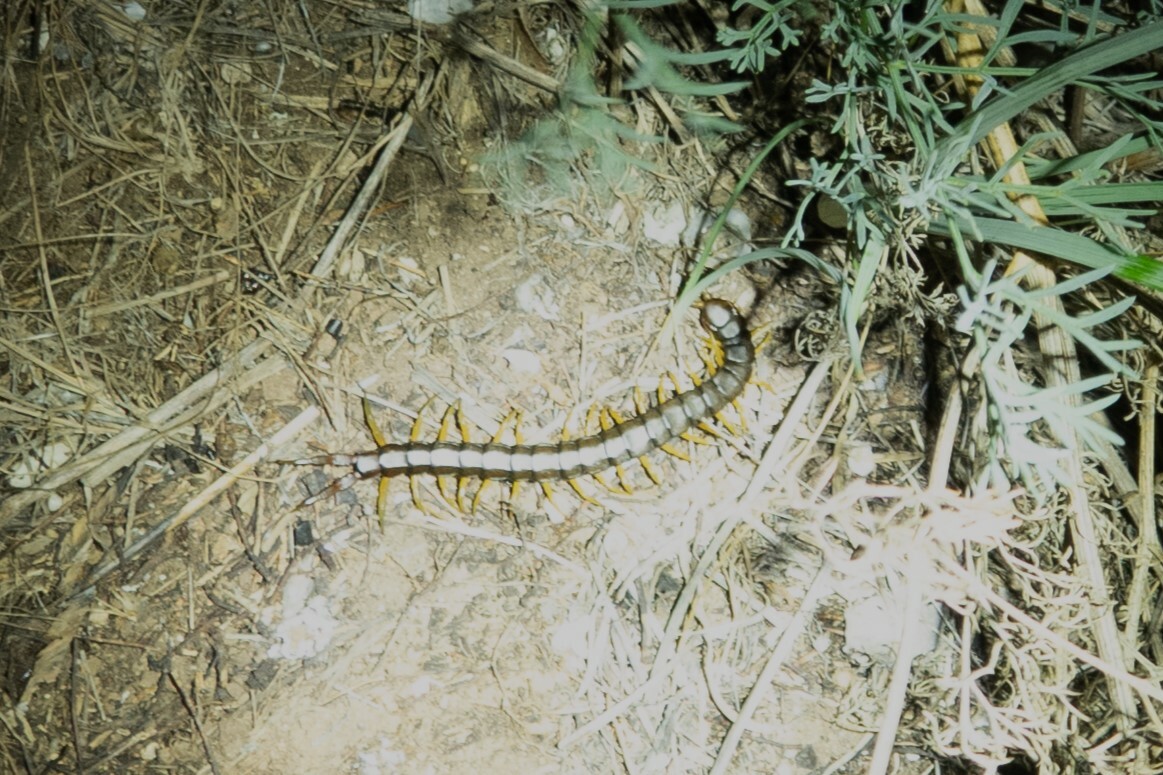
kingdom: Animalia
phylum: Arthropoda
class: Chilopoda
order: Scolopendromorpha
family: Scolopendridae
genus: Scolopendra
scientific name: Scolopendra cingulata
